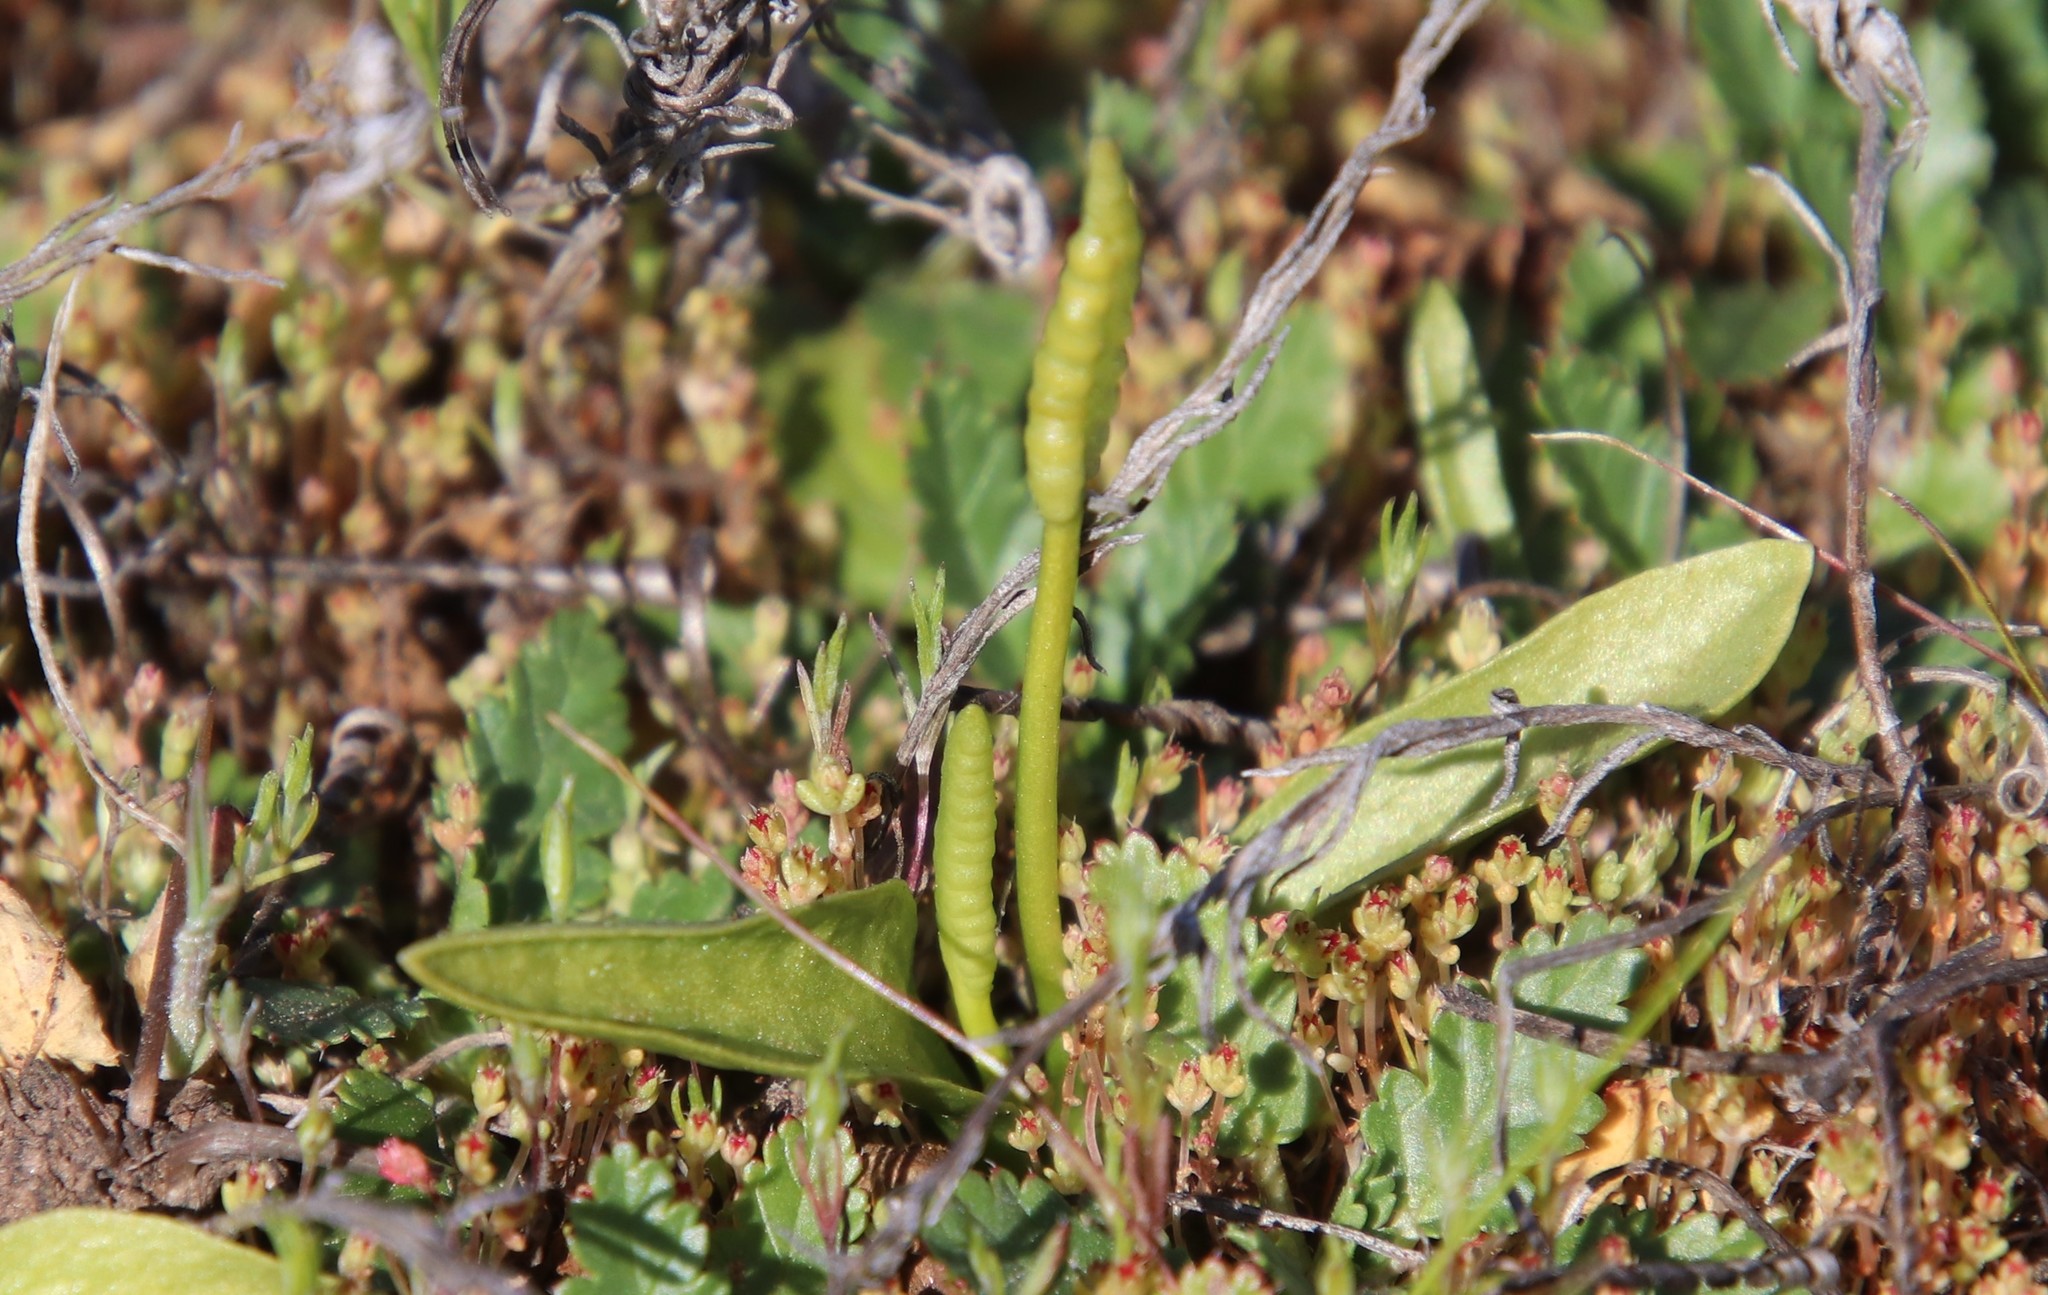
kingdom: Plantae
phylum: Tracheophyta
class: Polypodiopsida
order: Ophioglossales
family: Ophioglossaceae
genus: Ophioglossum
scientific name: Ophioglossum californicum
